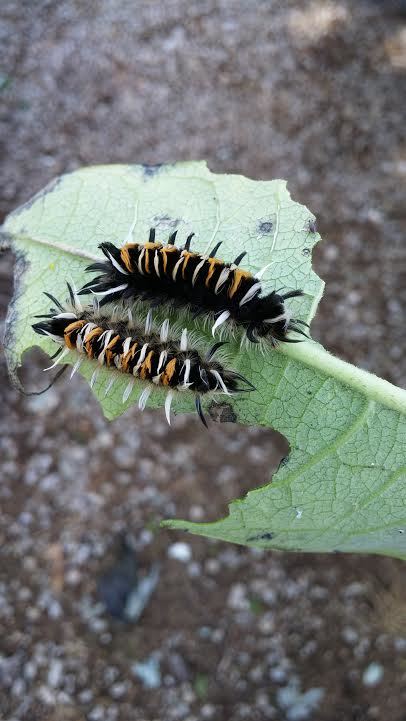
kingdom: Animalia
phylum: Arthropoda
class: Insecta
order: Lepidoptera
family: Erebidae
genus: Euchaetes
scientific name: Euchaetes egle
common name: Milkweed tussock moth
